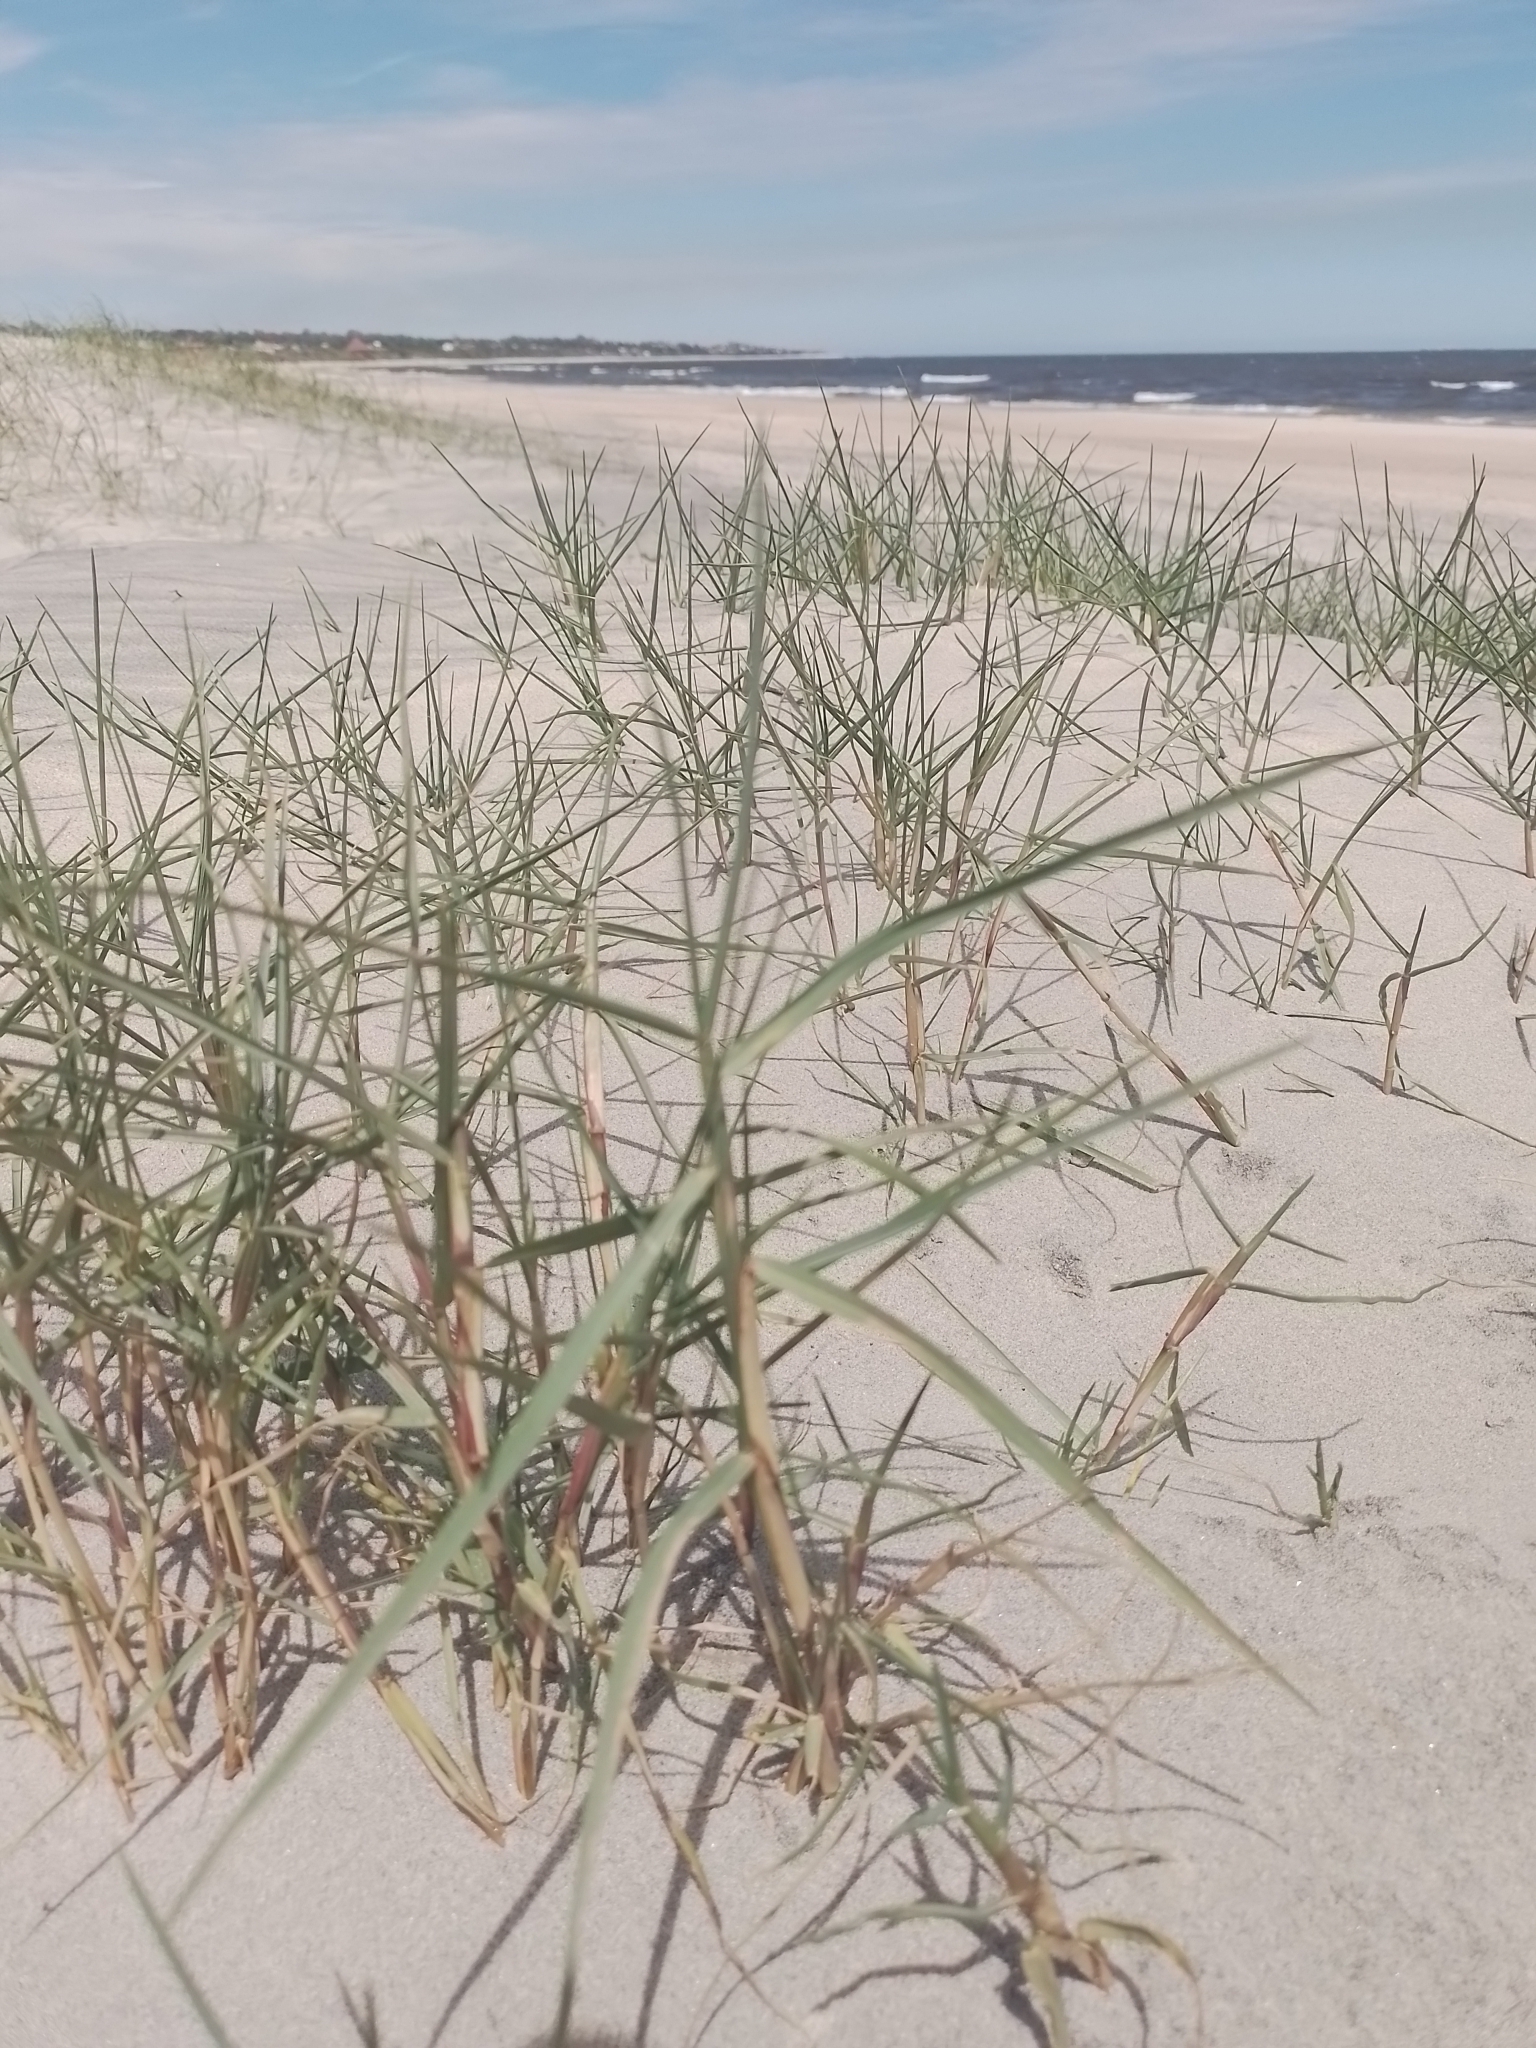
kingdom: Plantae
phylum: Tracheophyta
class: Liliopsida
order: Poales
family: Poaceae
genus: Paspalum
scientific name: Paspalum vaginatum
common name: Seashore paspalum
